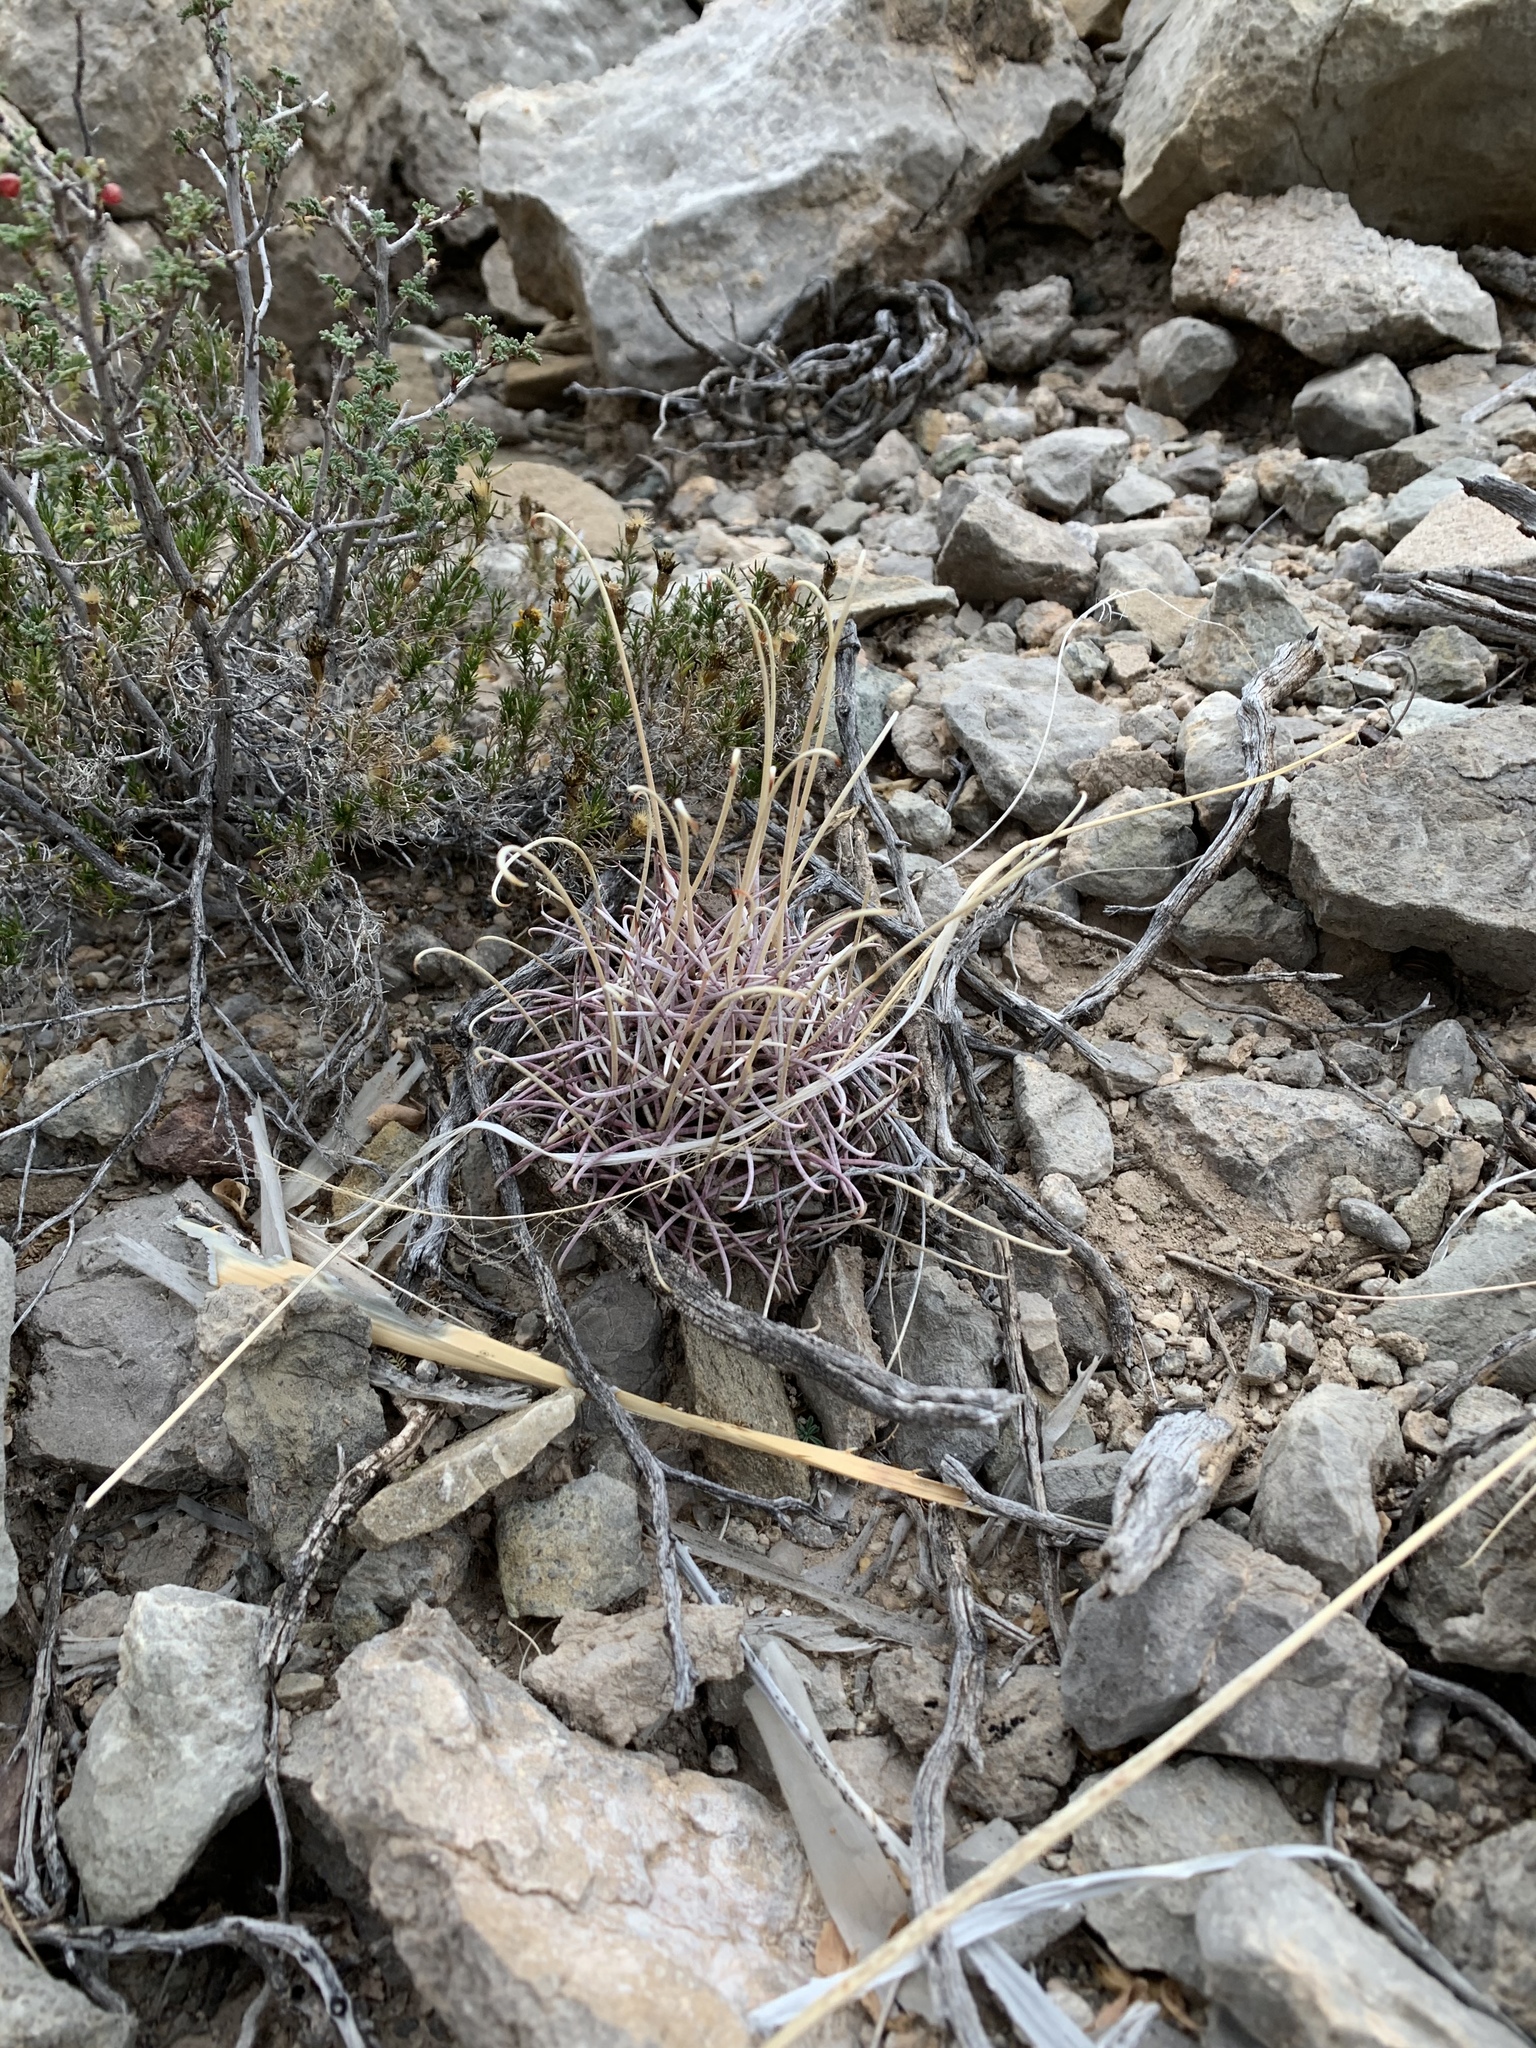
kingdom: Plantae
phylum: Tracheophyta
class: Magnoliopsida
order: Caryophyllales
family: Cactaceae
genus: Ferocactus
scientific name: Ferocactus uncinatus
